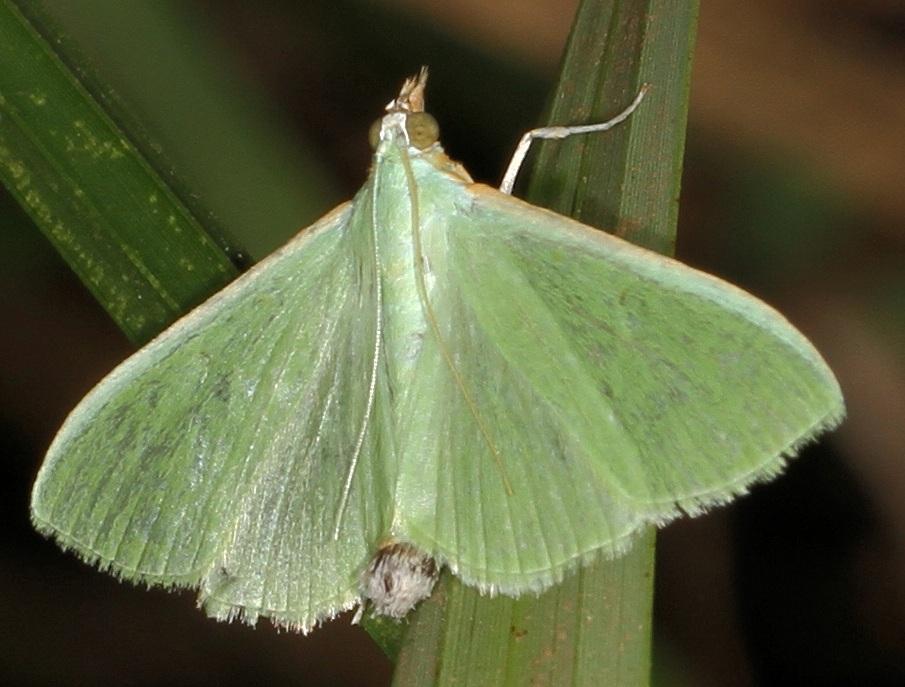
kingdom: Animalia
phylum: Arthropoda
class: Insecta
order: Lepidoptera
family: Crambidae
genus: Parotis
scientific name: Parotis baldersalis
